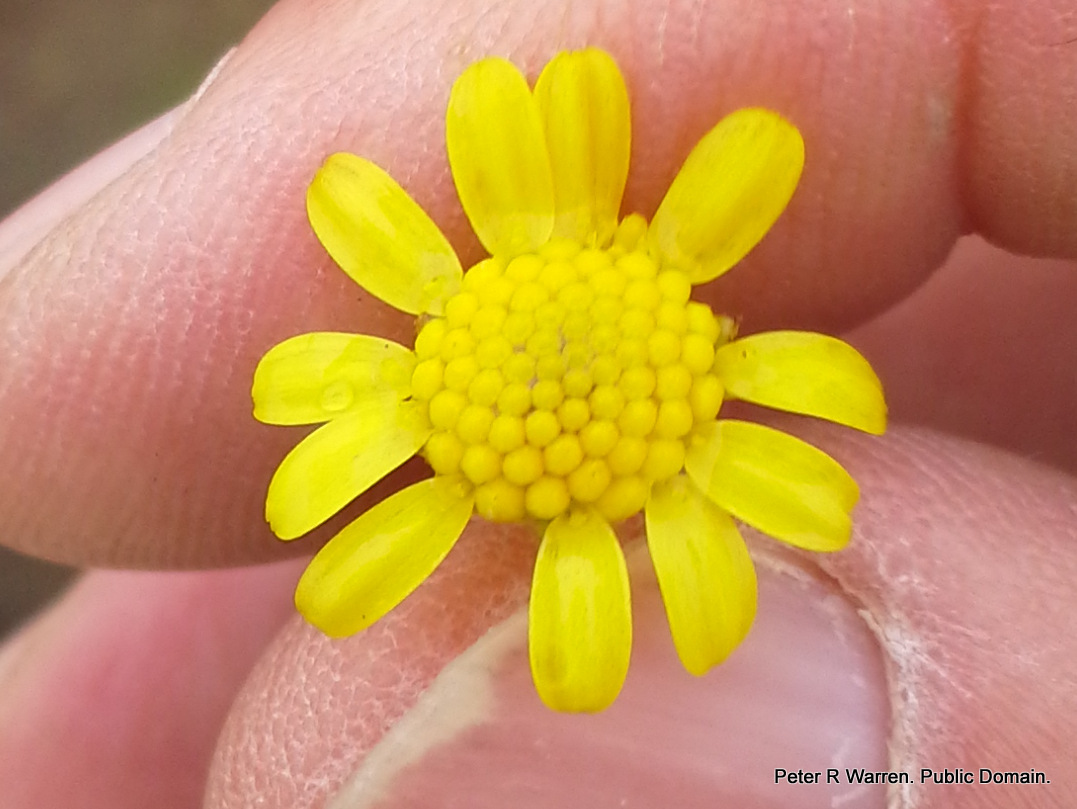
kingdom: Plantae
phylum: Tracheophyta
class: Magnoliopsida
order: Asterales
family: Asteraceae
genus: Euryops
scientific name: Euryops laxus
